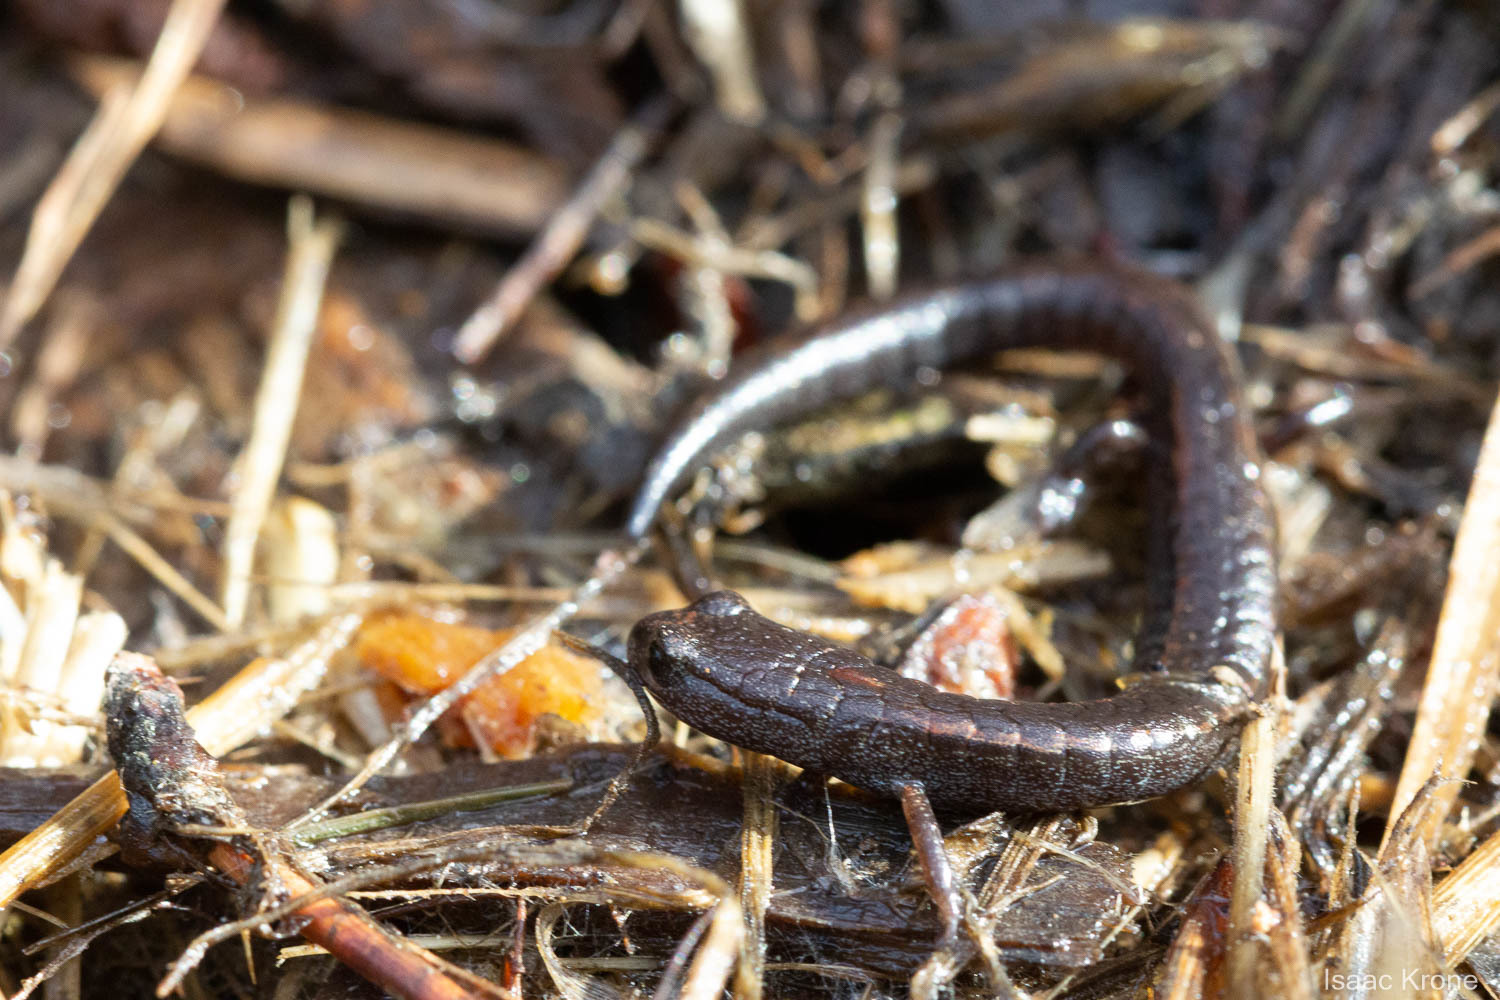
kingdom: Animalia
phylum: Chordata
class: Amphibia
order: Caudata
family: Plethodontidae
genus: Batrachoseps
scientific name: Batrachoseps attenuatus
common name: California slender salamander
